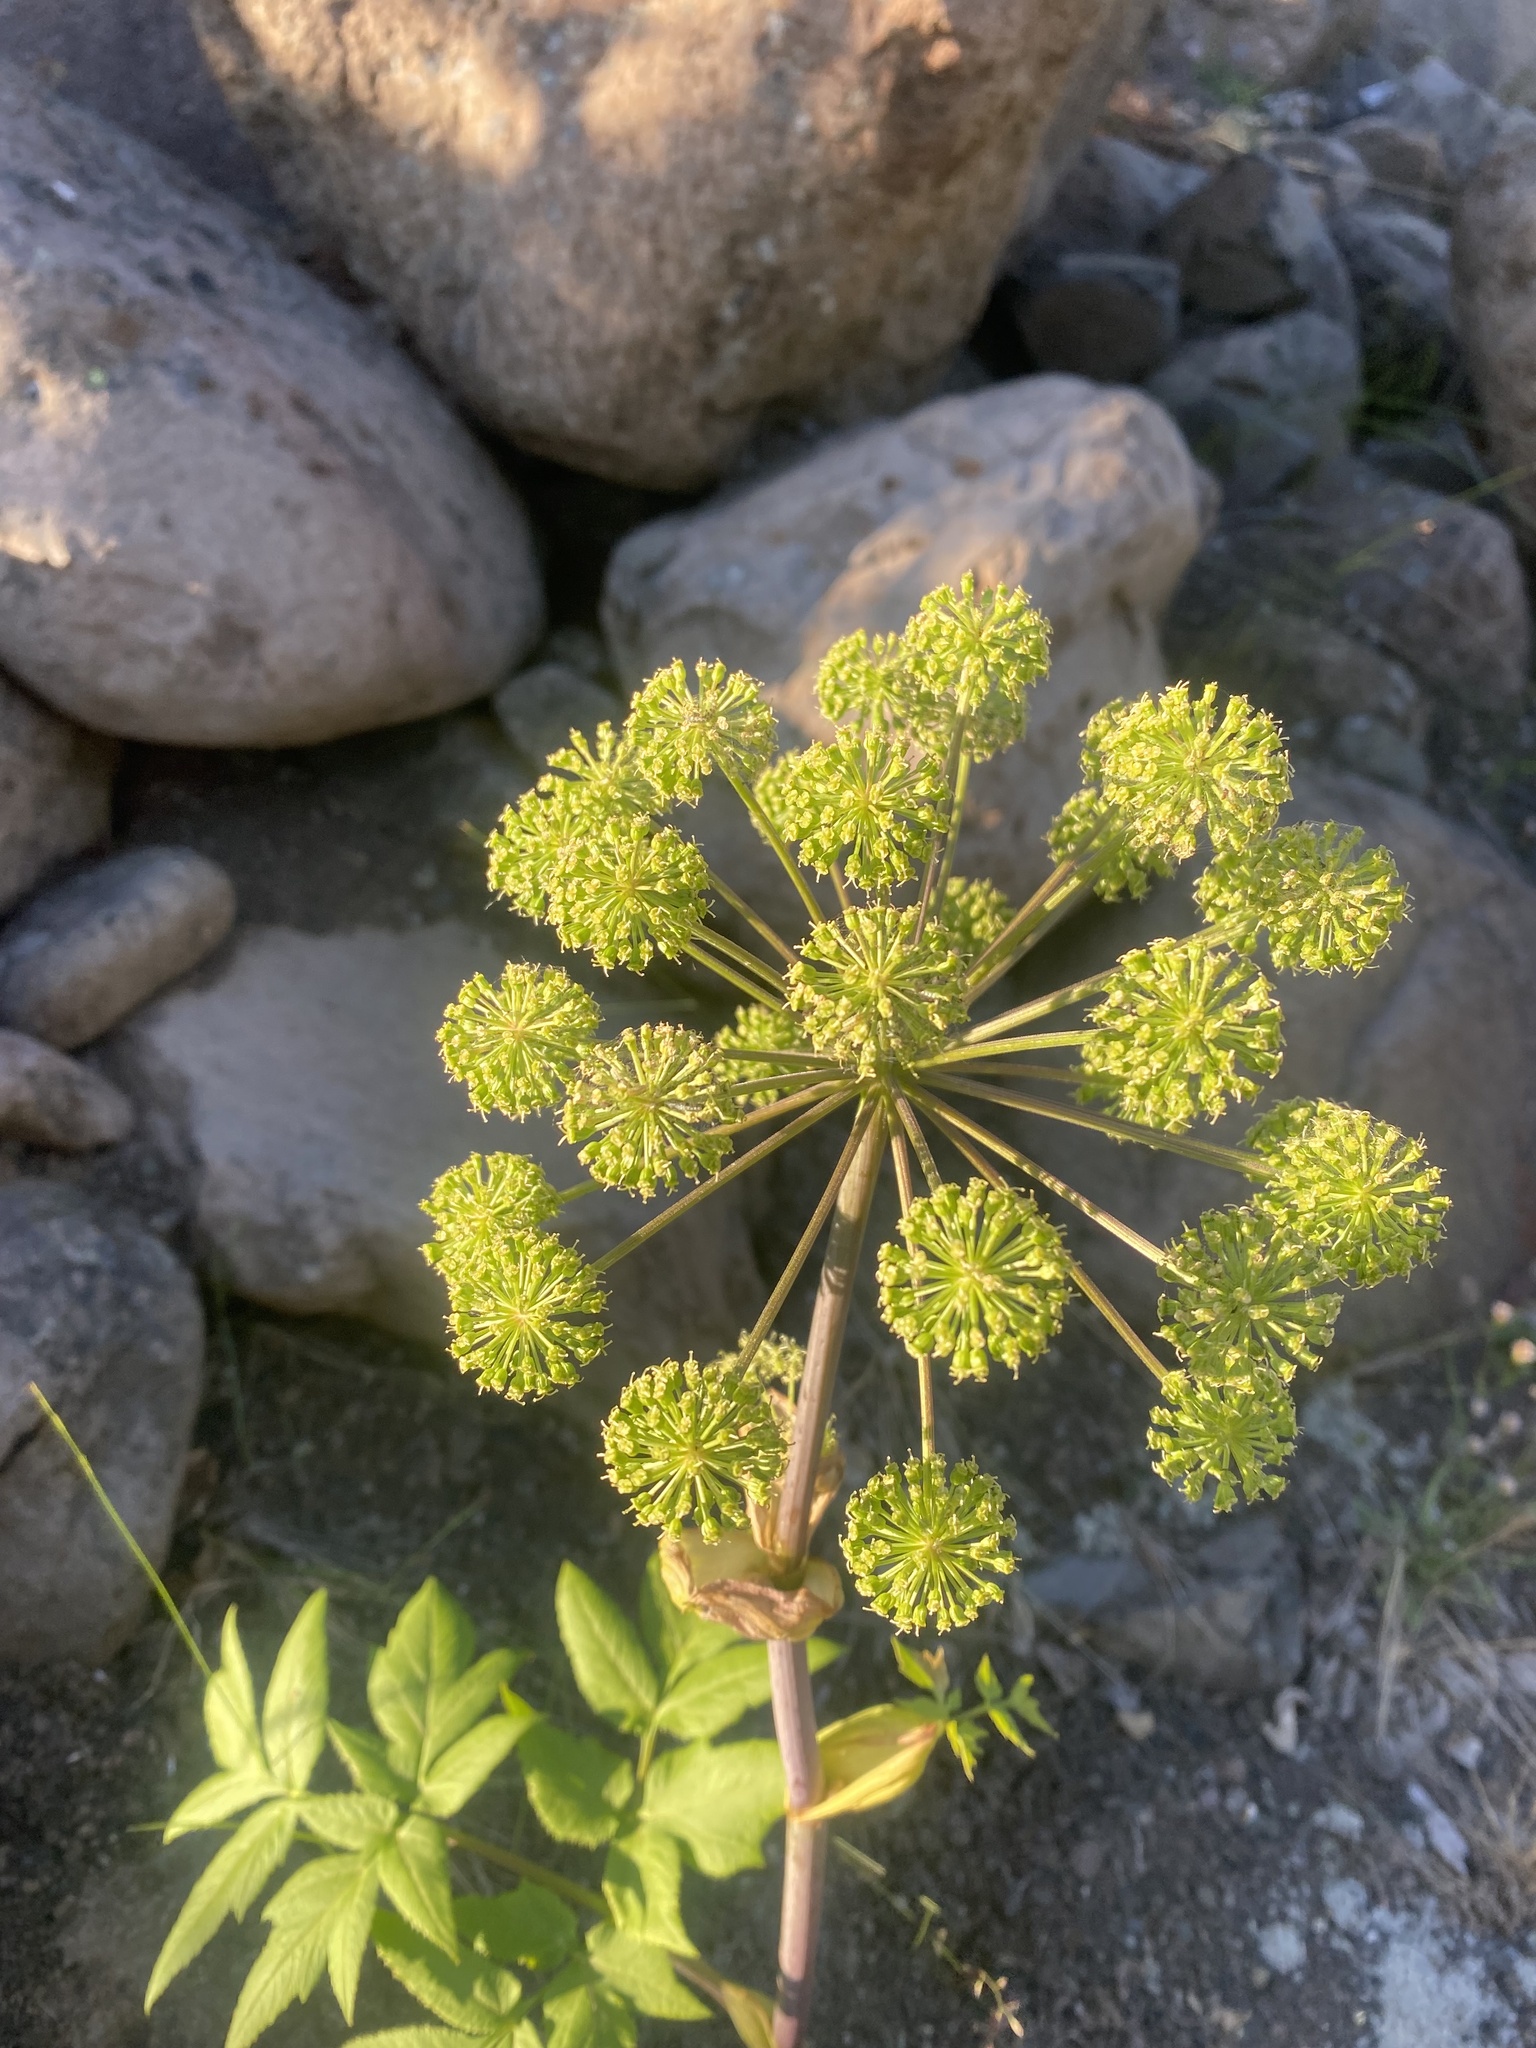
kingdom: Plantae
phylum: Tracheophyta
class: Magnoliopsida
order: Apiales
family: Apiaceae
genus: Angelica
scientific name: Angelica decurrens
